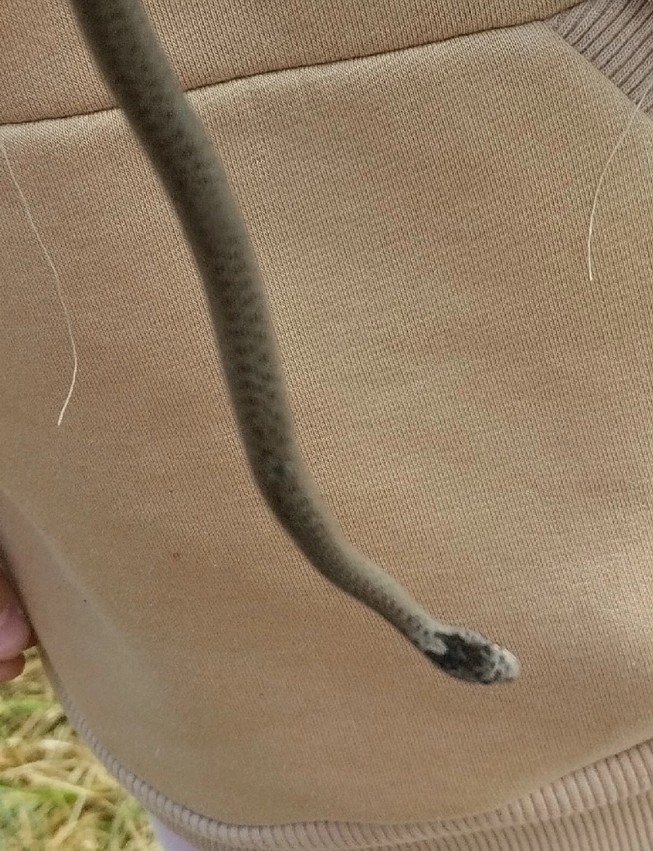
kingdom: Animalia
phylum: Chordata
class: Squamata
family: Colubridae
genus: Coronella
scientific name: Coronella austriaca
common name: Smooth snake
